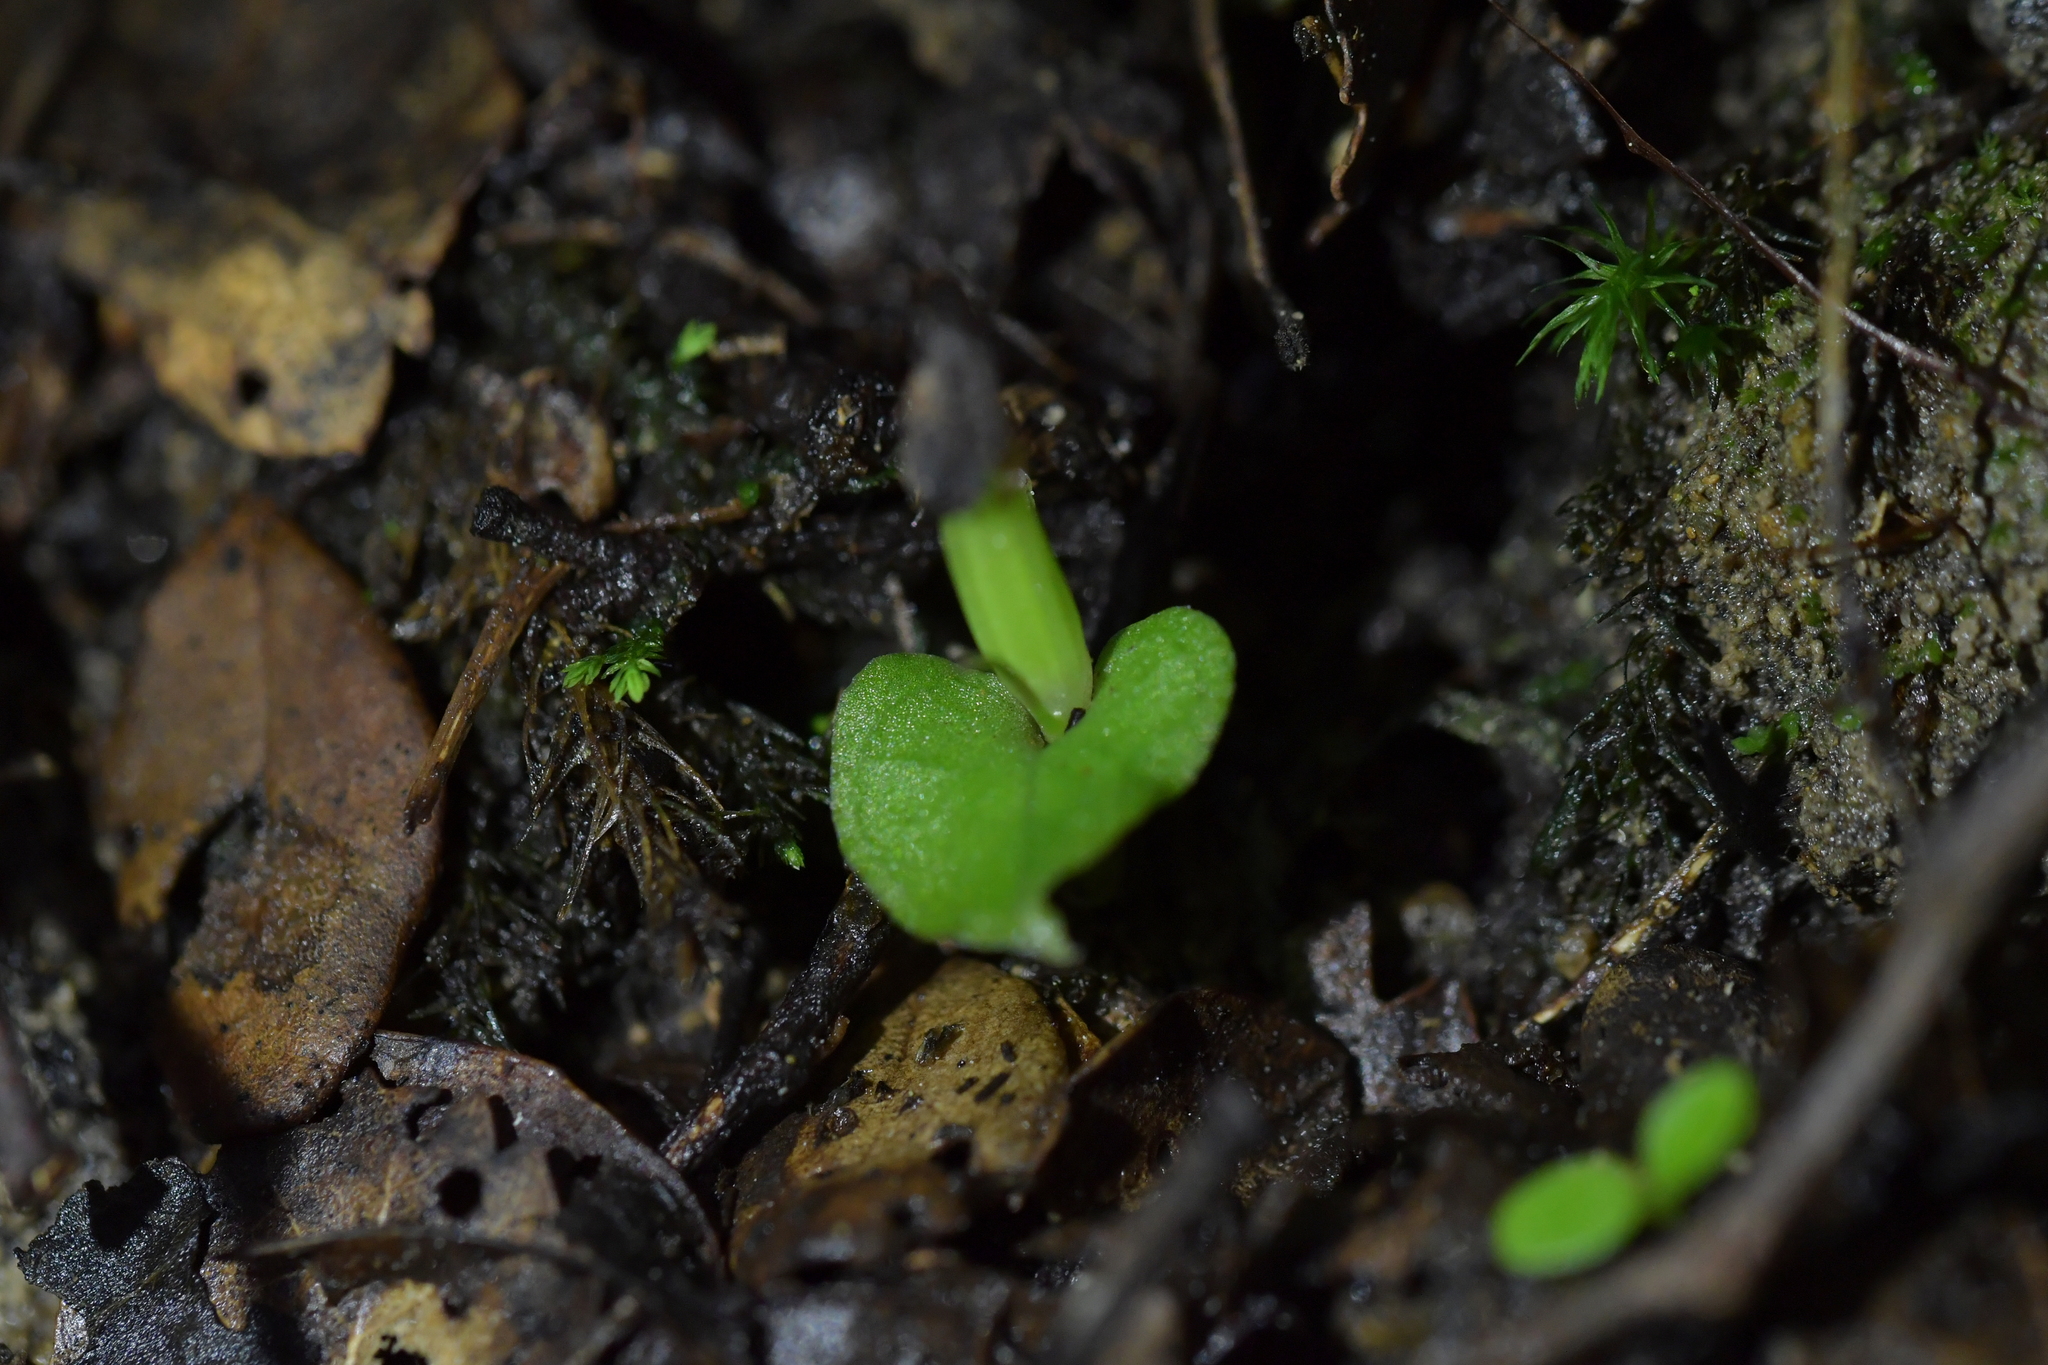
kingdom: Plantae
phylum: Tracheophyta
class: Liliopsida
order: Asparagales
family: Orchidaceae
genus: Corybas
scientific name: Corybas cheesemanii
